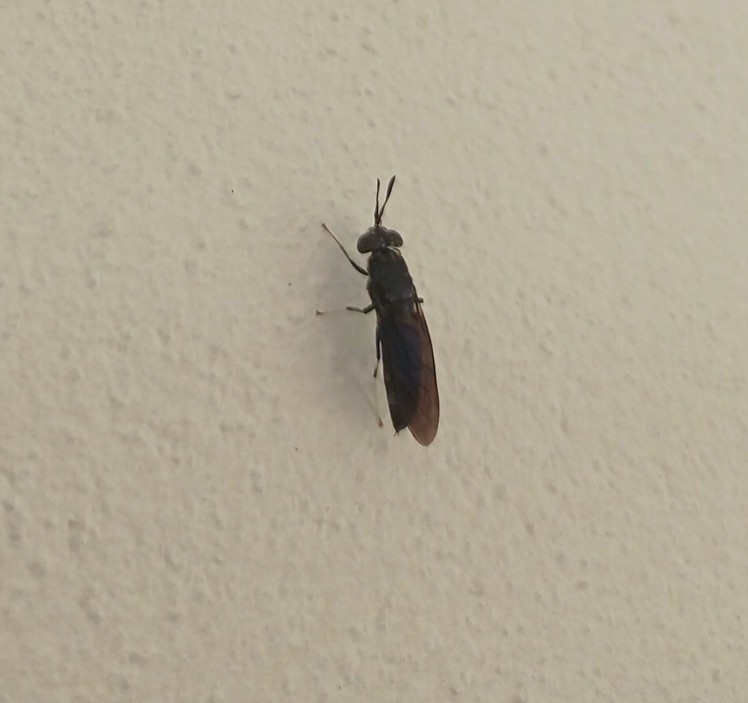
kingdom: Animalia
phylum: Arthropoda
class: Insecta
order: Diptera
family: Stratiomyidae
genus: Hermetia
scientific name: Hermetia illucens
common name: Black soldier fly
